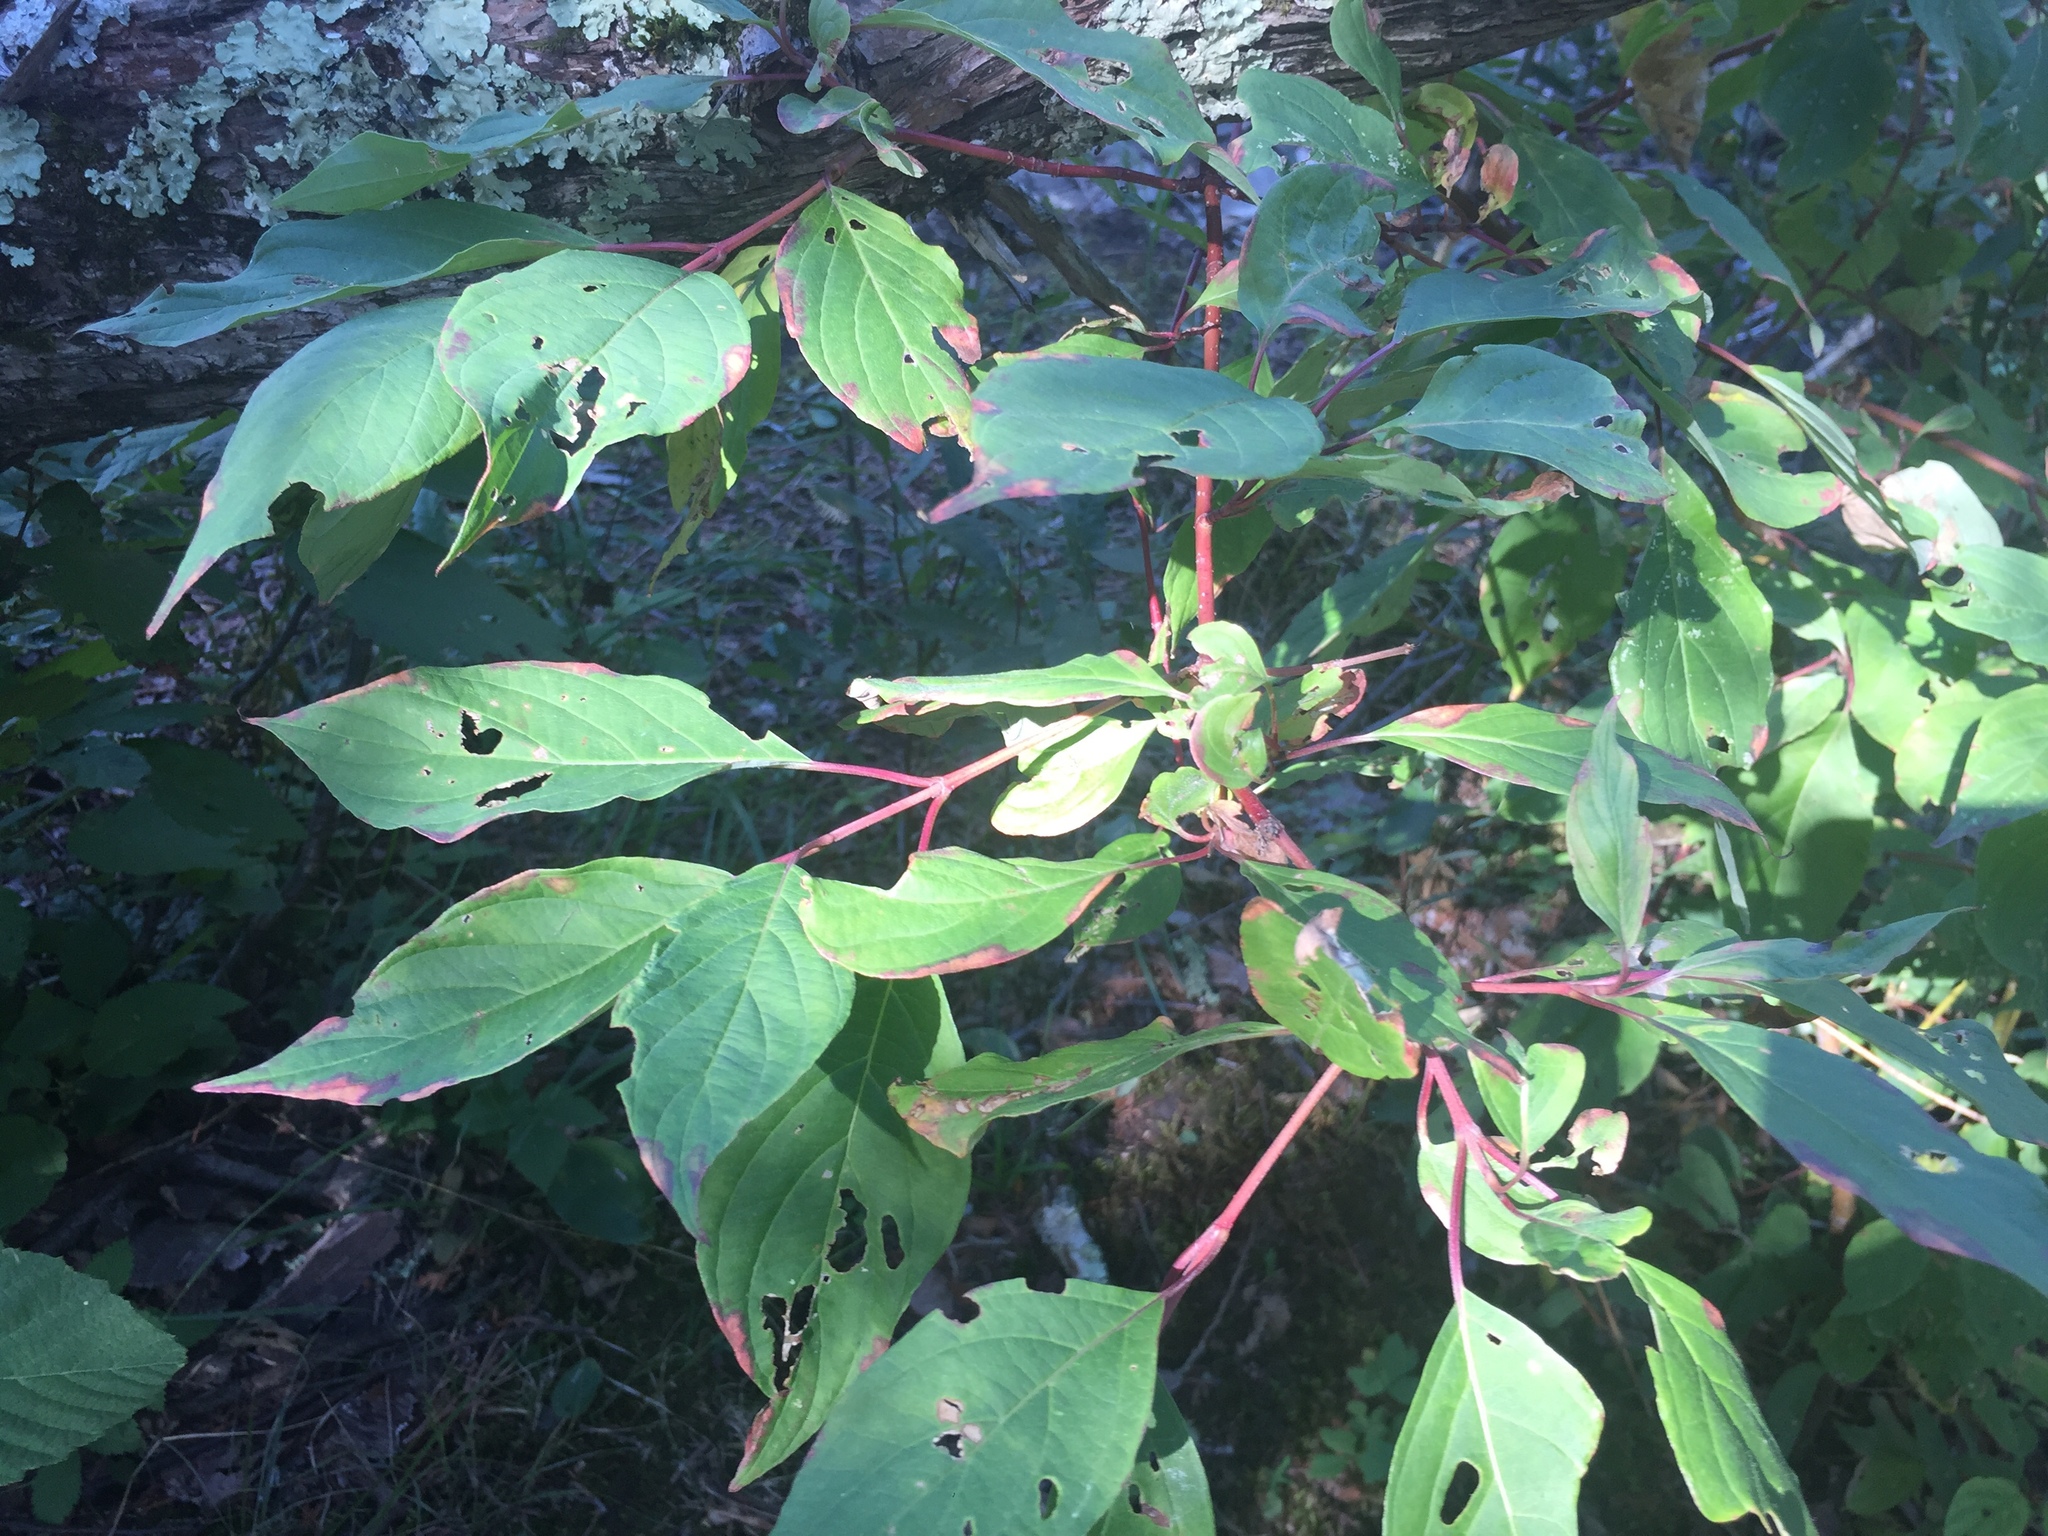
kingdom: Plantae
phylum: Tracheophyta
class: Magnoliopsida
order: Cornales
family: Cornaceae
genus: Cornus
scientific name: Cornus sericea
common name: Red-osier dogwood
